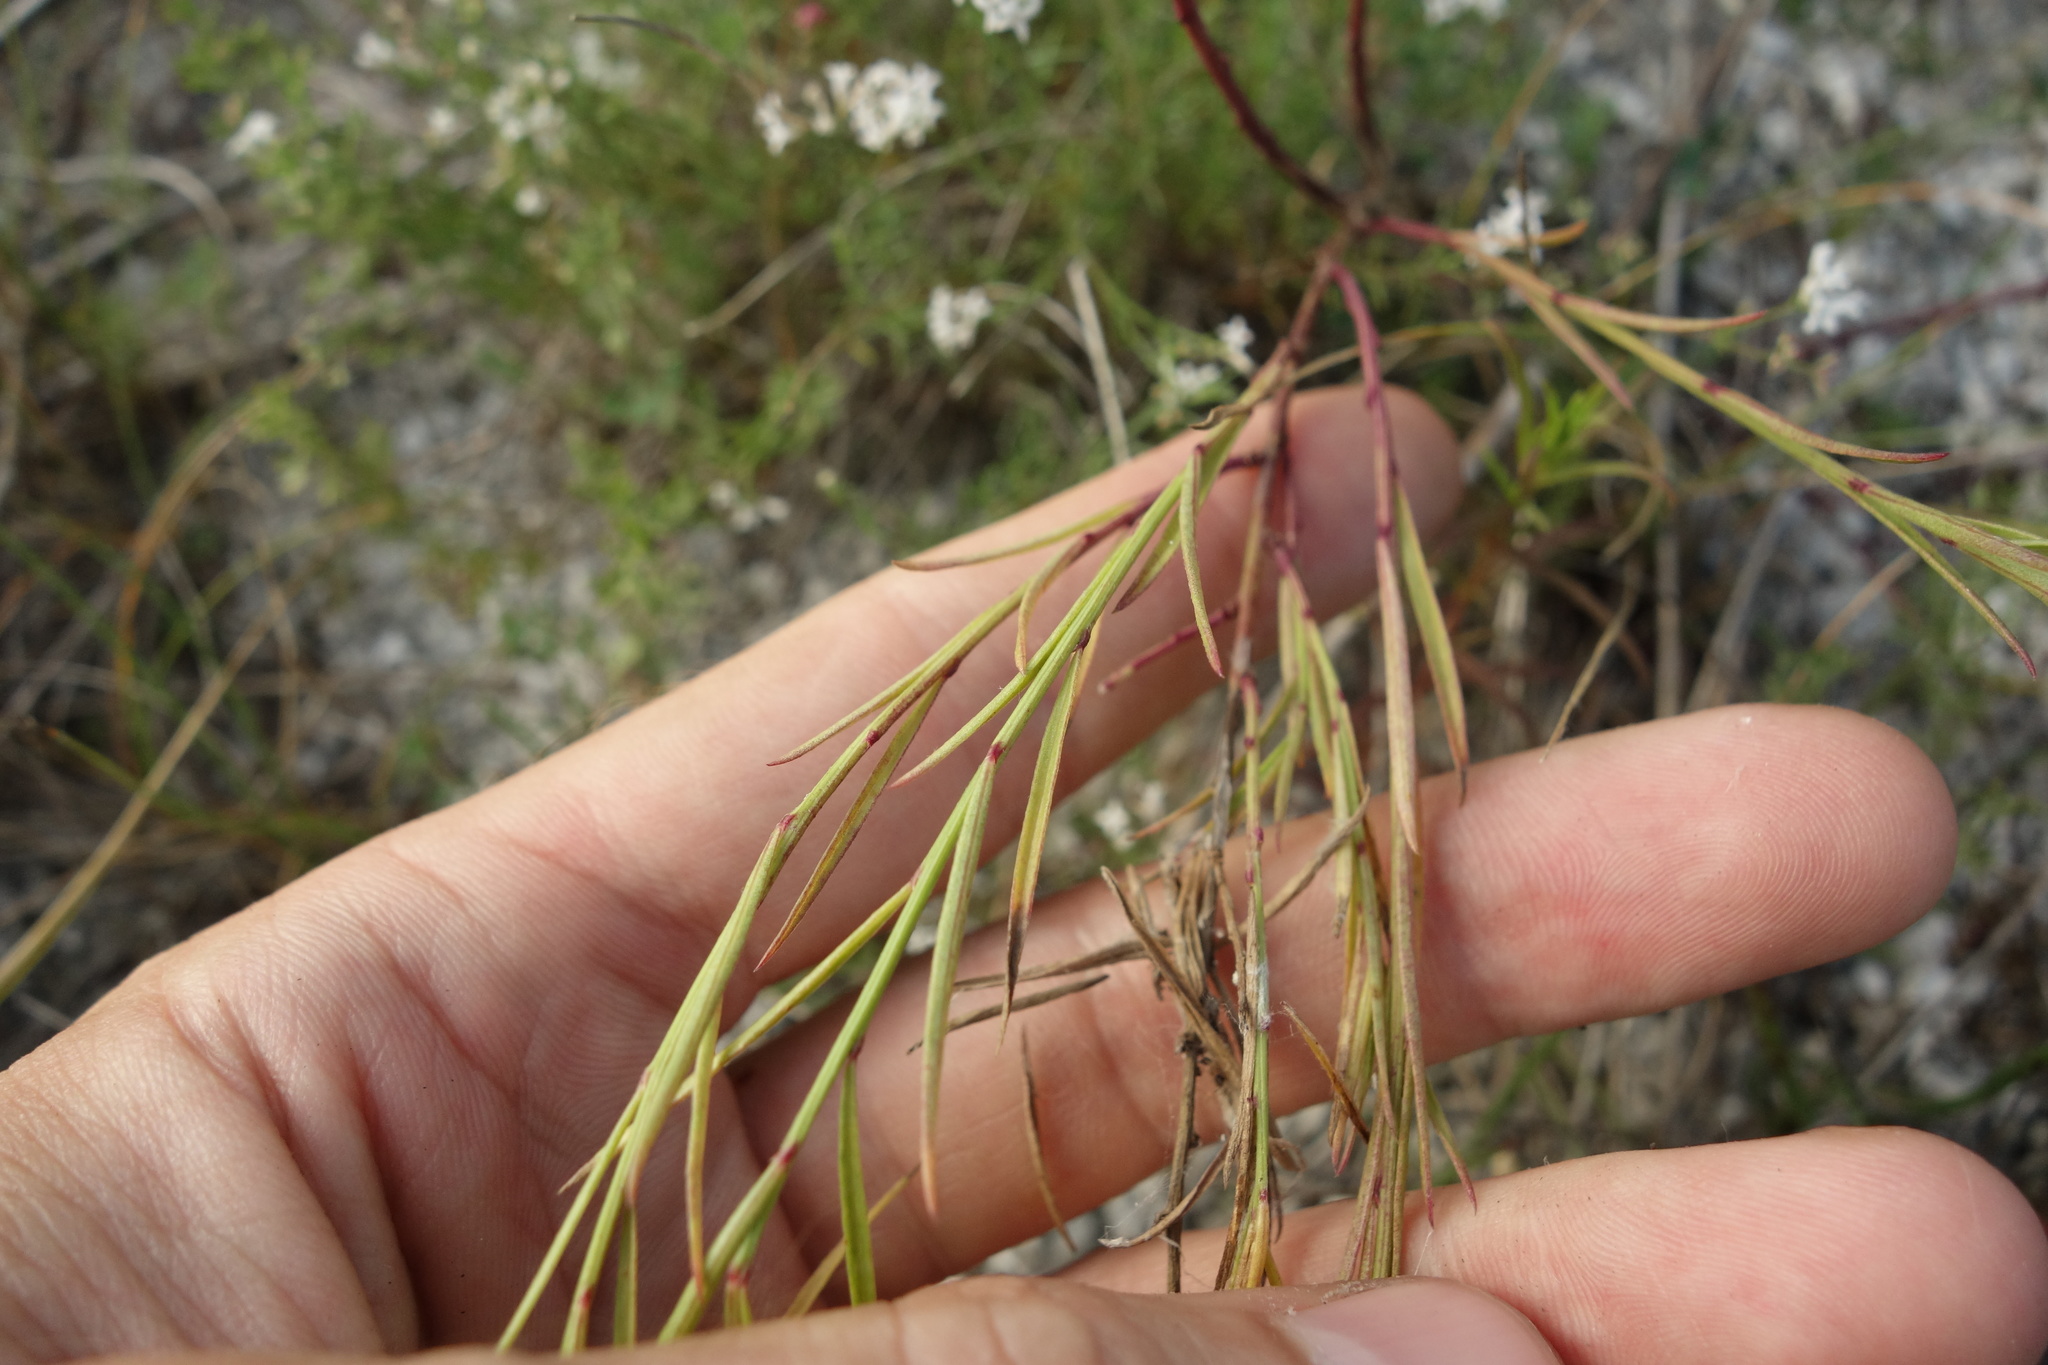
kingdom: Plantae
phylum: Tracheophyta
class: Magnoliopsida
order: Fabales
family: Fabaceae
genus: Genista
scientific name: Genista tinctoria
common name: Dyer's greenweed
